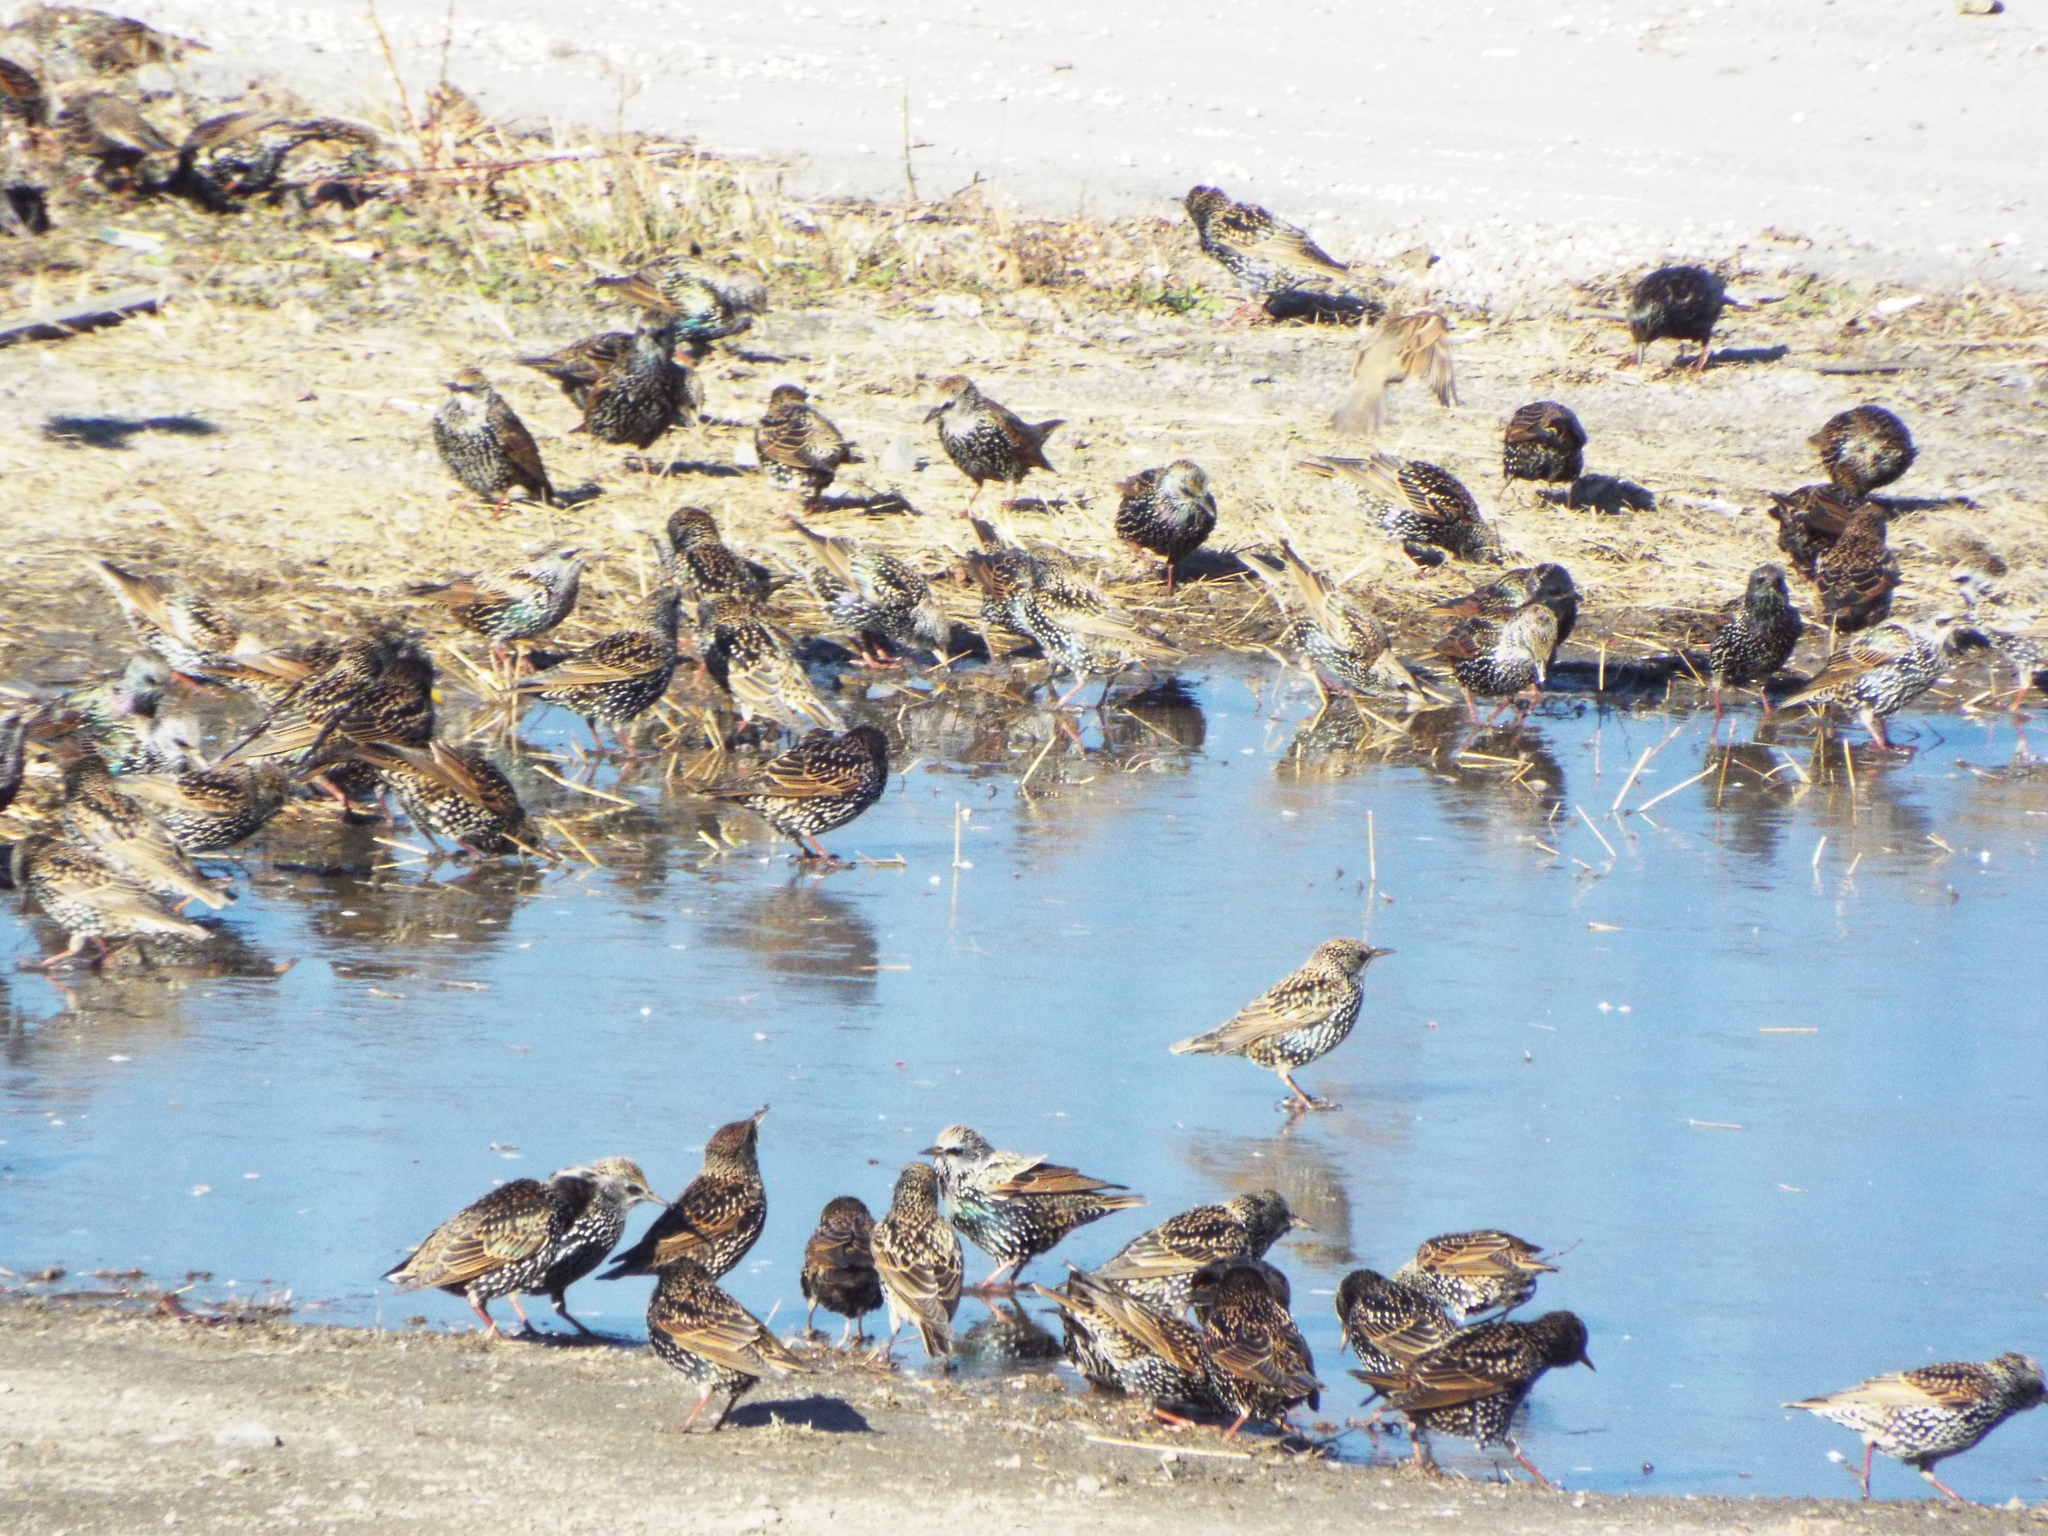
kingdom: Animalia
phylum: Chordata
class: Aves
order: Passeriformes
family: Sturnidae
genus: Sturnus
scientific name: Sturnus vulgaris
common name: Common starling
